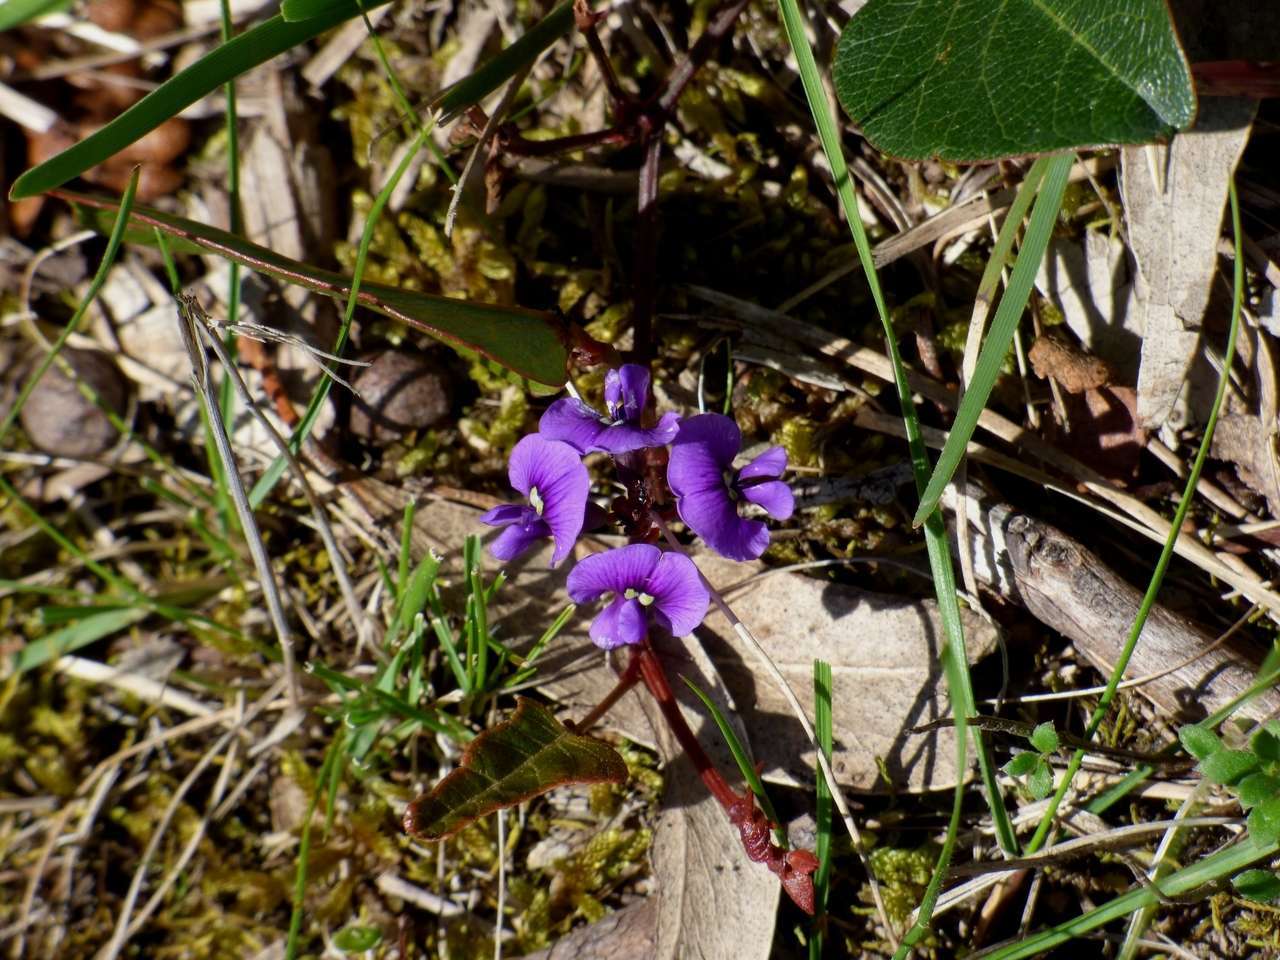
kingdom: Plantae
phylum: Tracheophyta
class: Magnoliopsida
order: Fabales
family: Fabaceae
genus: Hardenbergia
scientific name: Hardenbergia violacea
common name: Coral-pea
